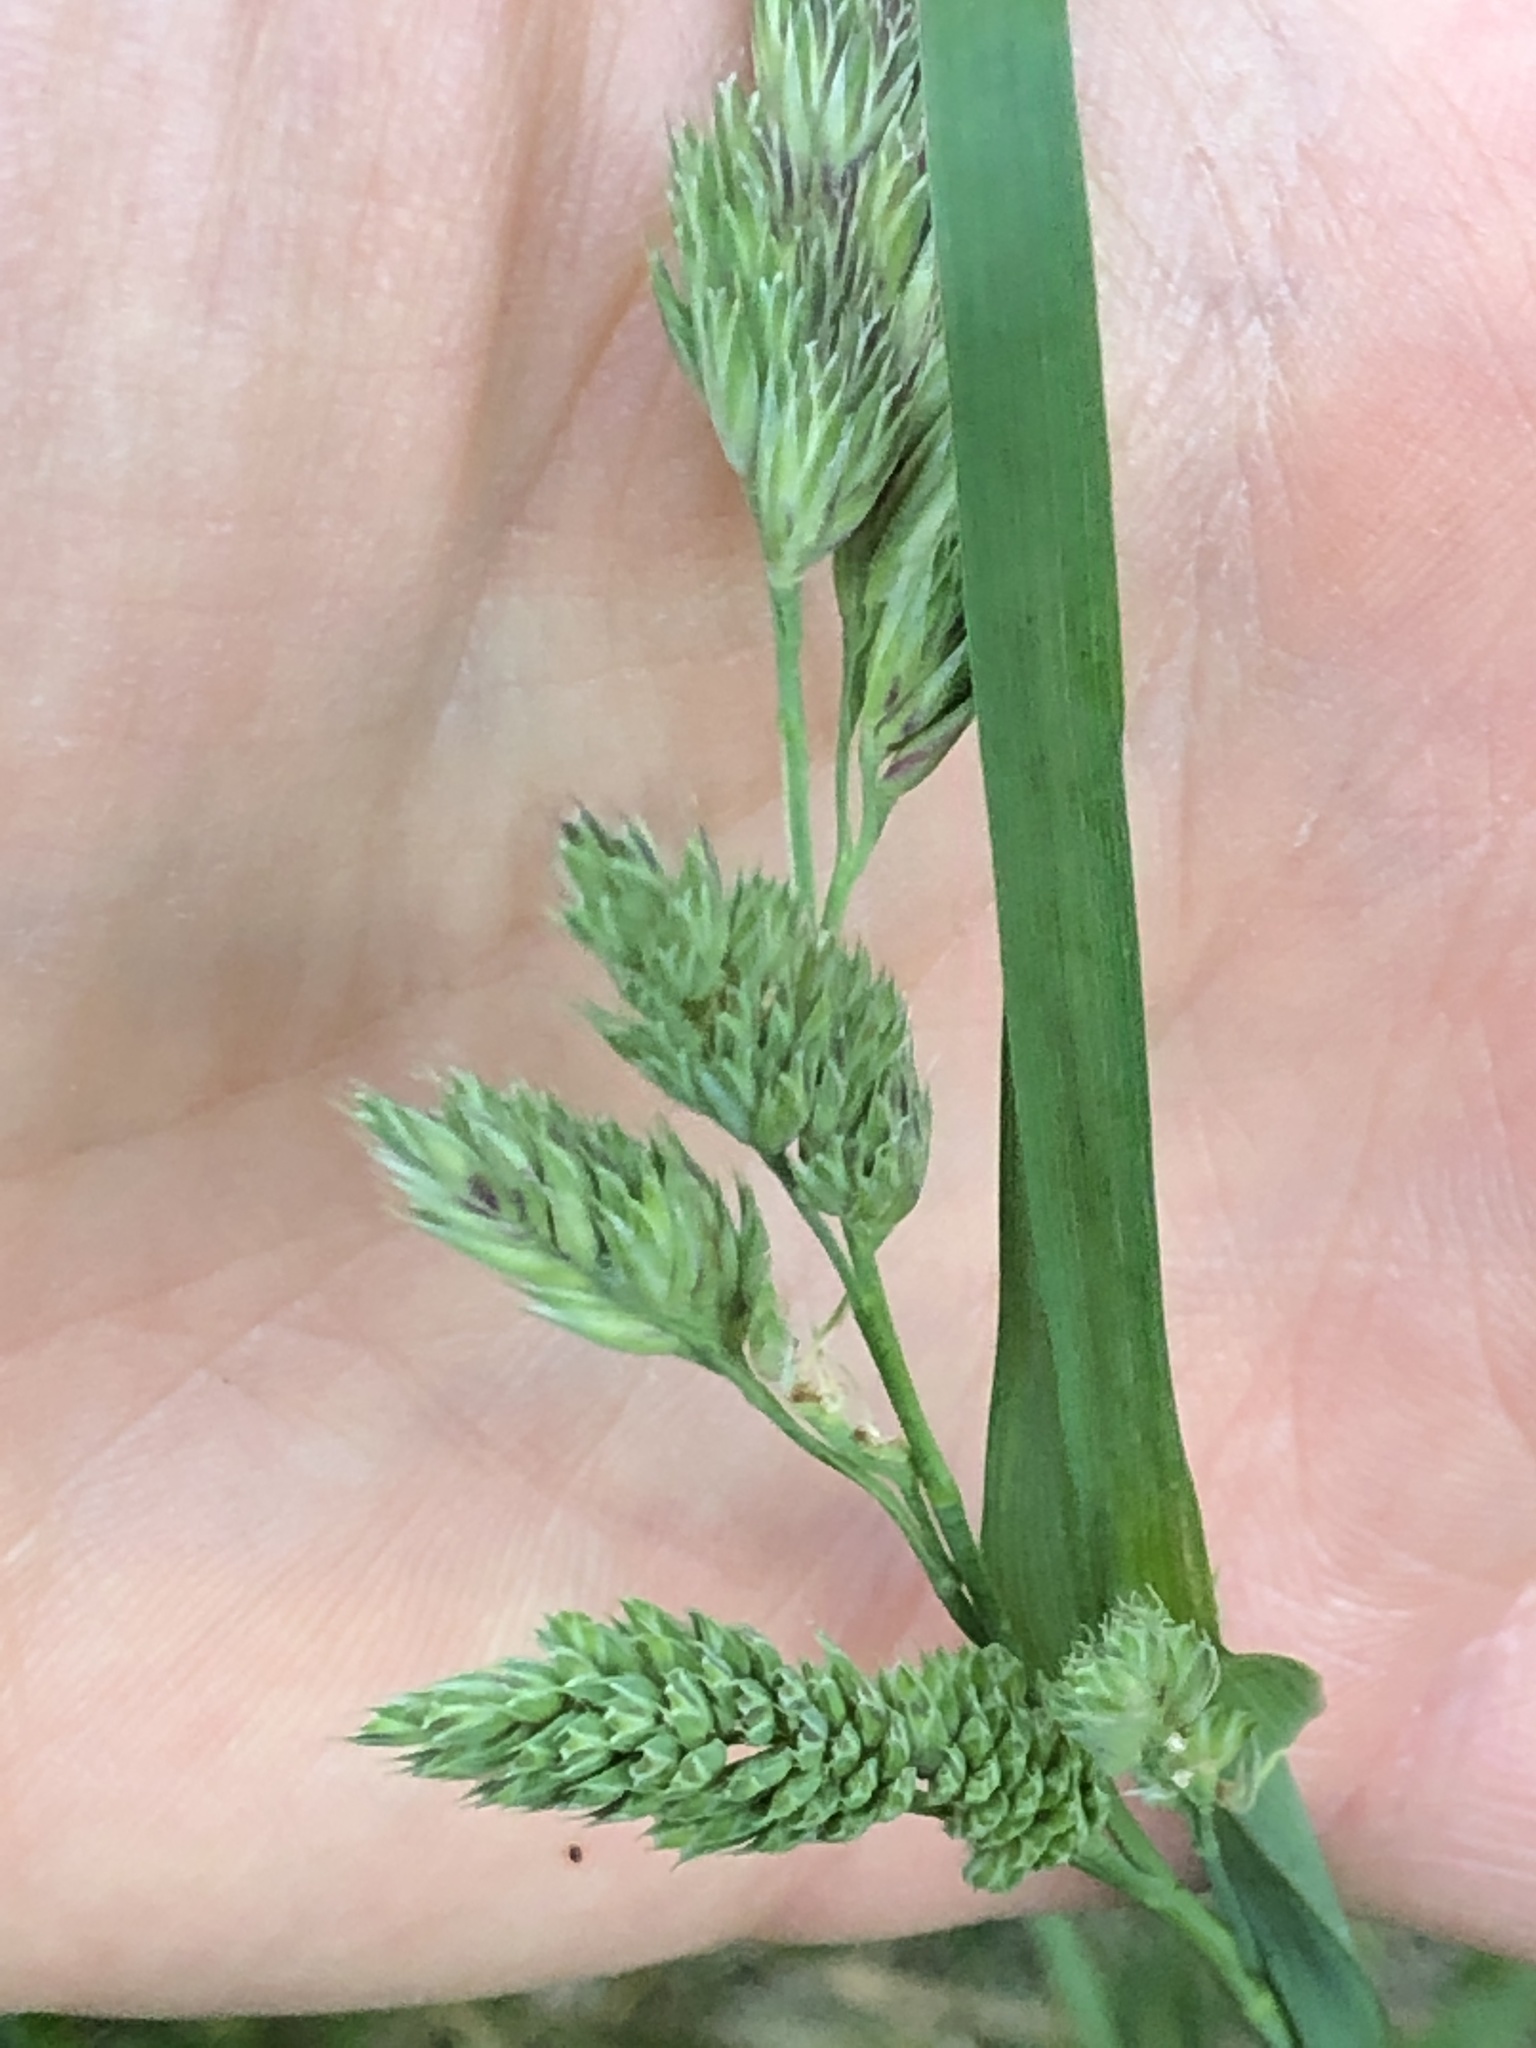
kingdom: Plantae
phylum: Tracheophyta
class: Liliopsida
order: Poales
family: Poaceae
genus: Dactylis
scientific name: Dactylis glomerata
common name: Orchardgrass
